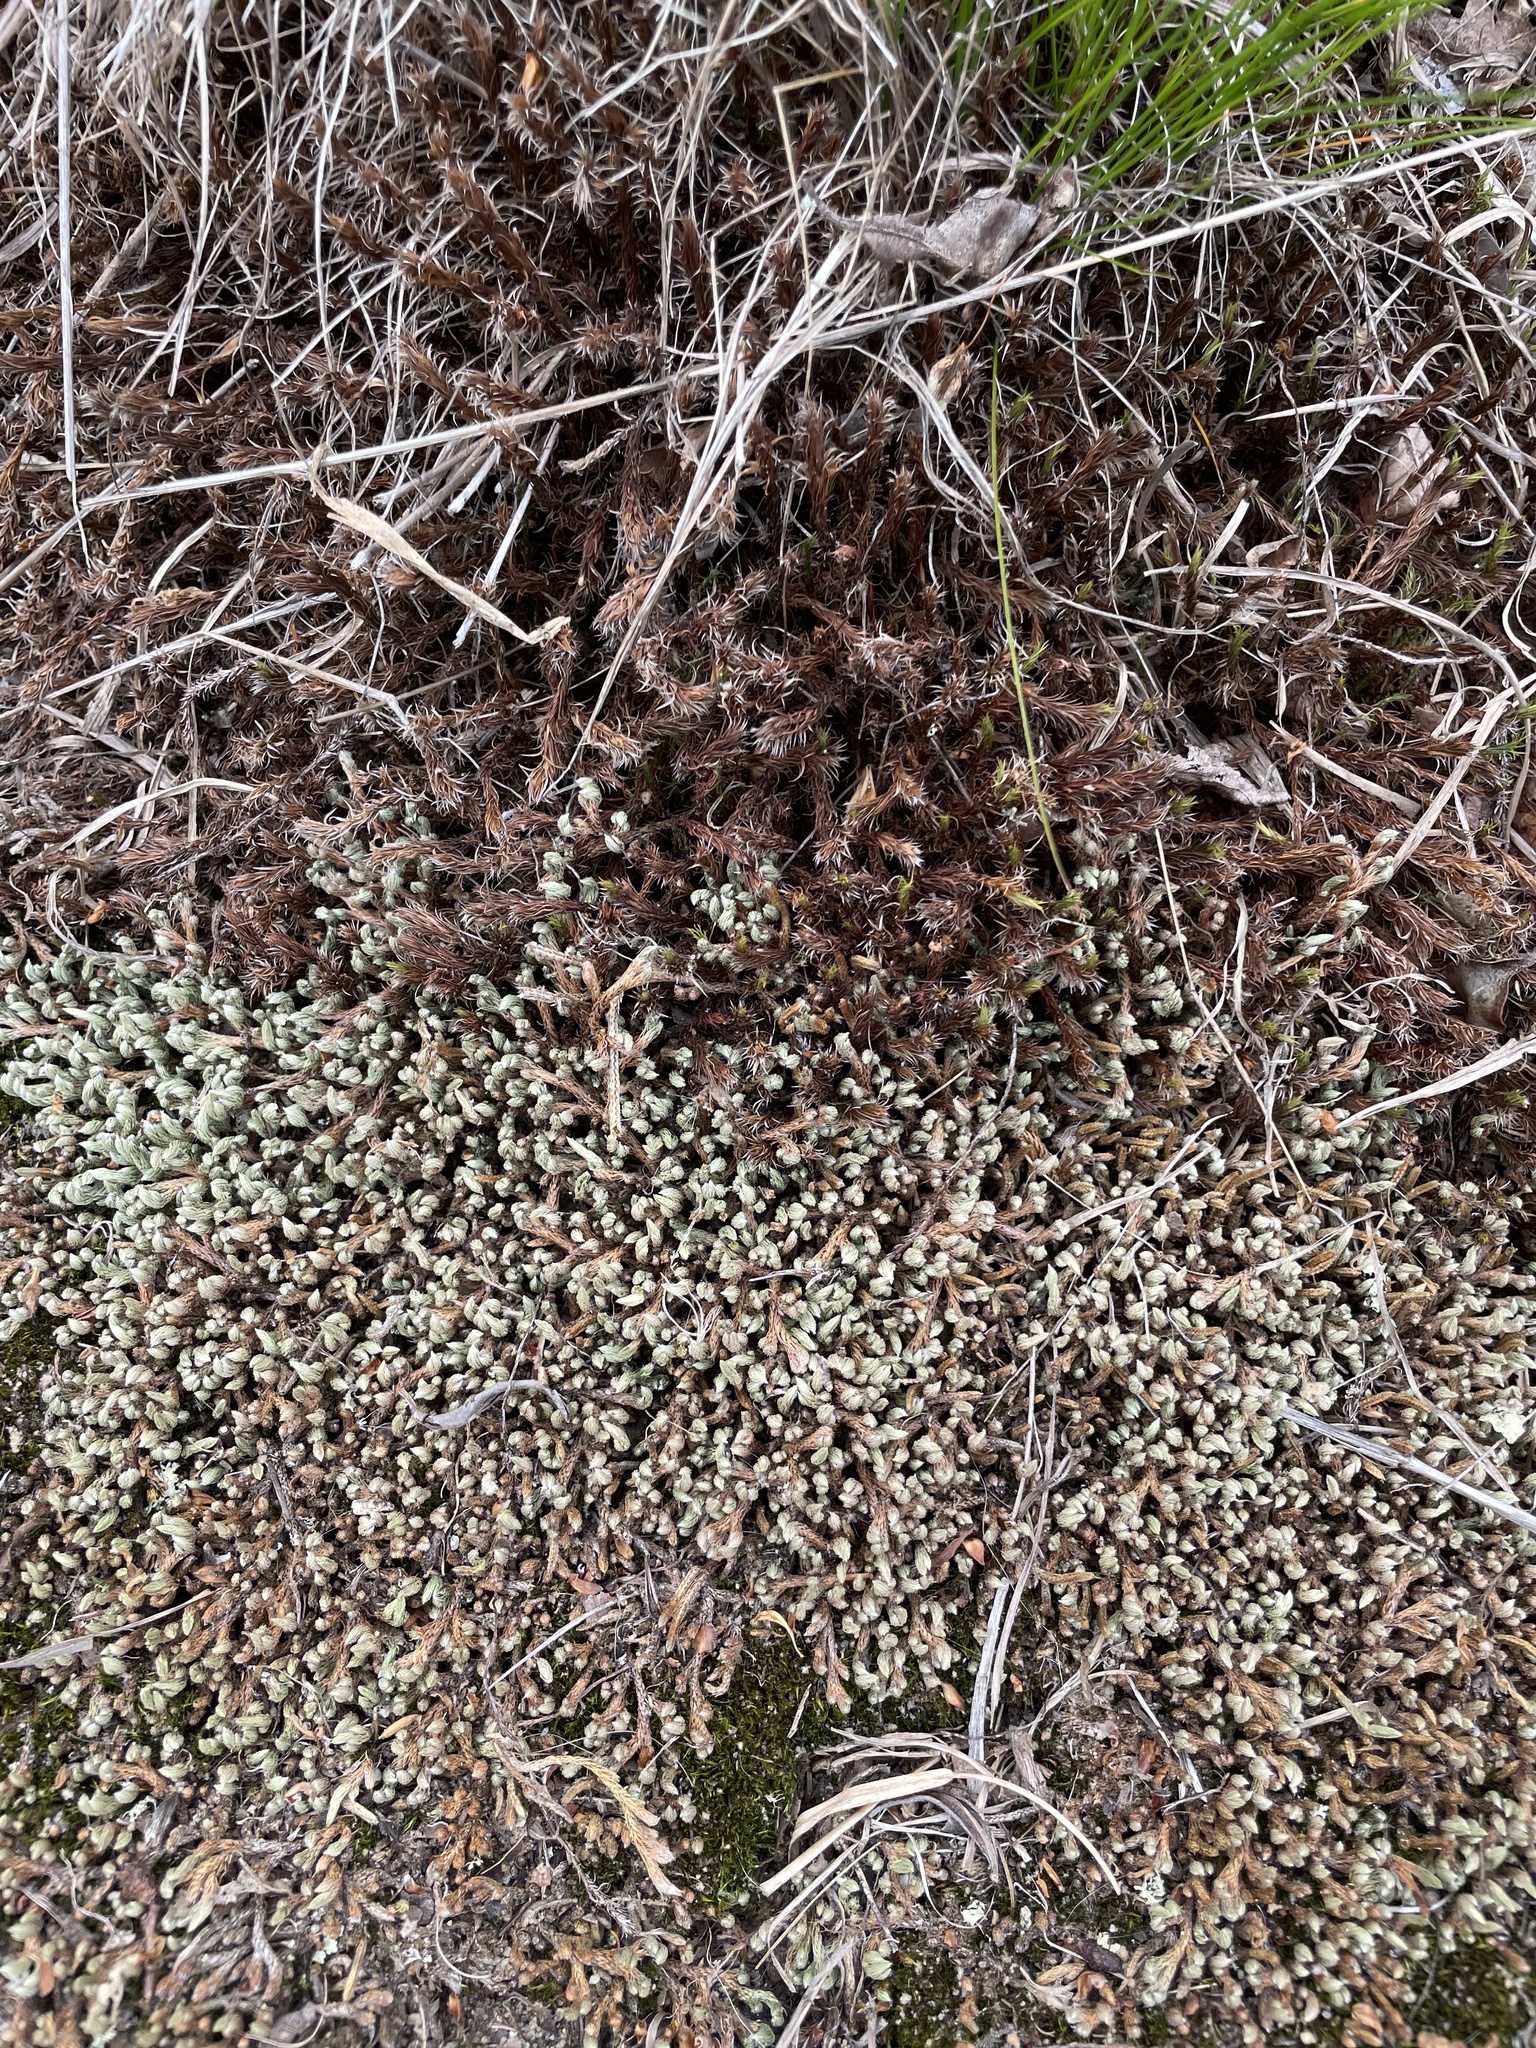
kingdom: Plantae
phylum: Tracheophyta
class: Lycopodiopsida
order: Selaginellales
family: Selaginellaceae
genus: Selaginella
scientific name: Selaginella rupestris
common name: Dwarf spikemoss
